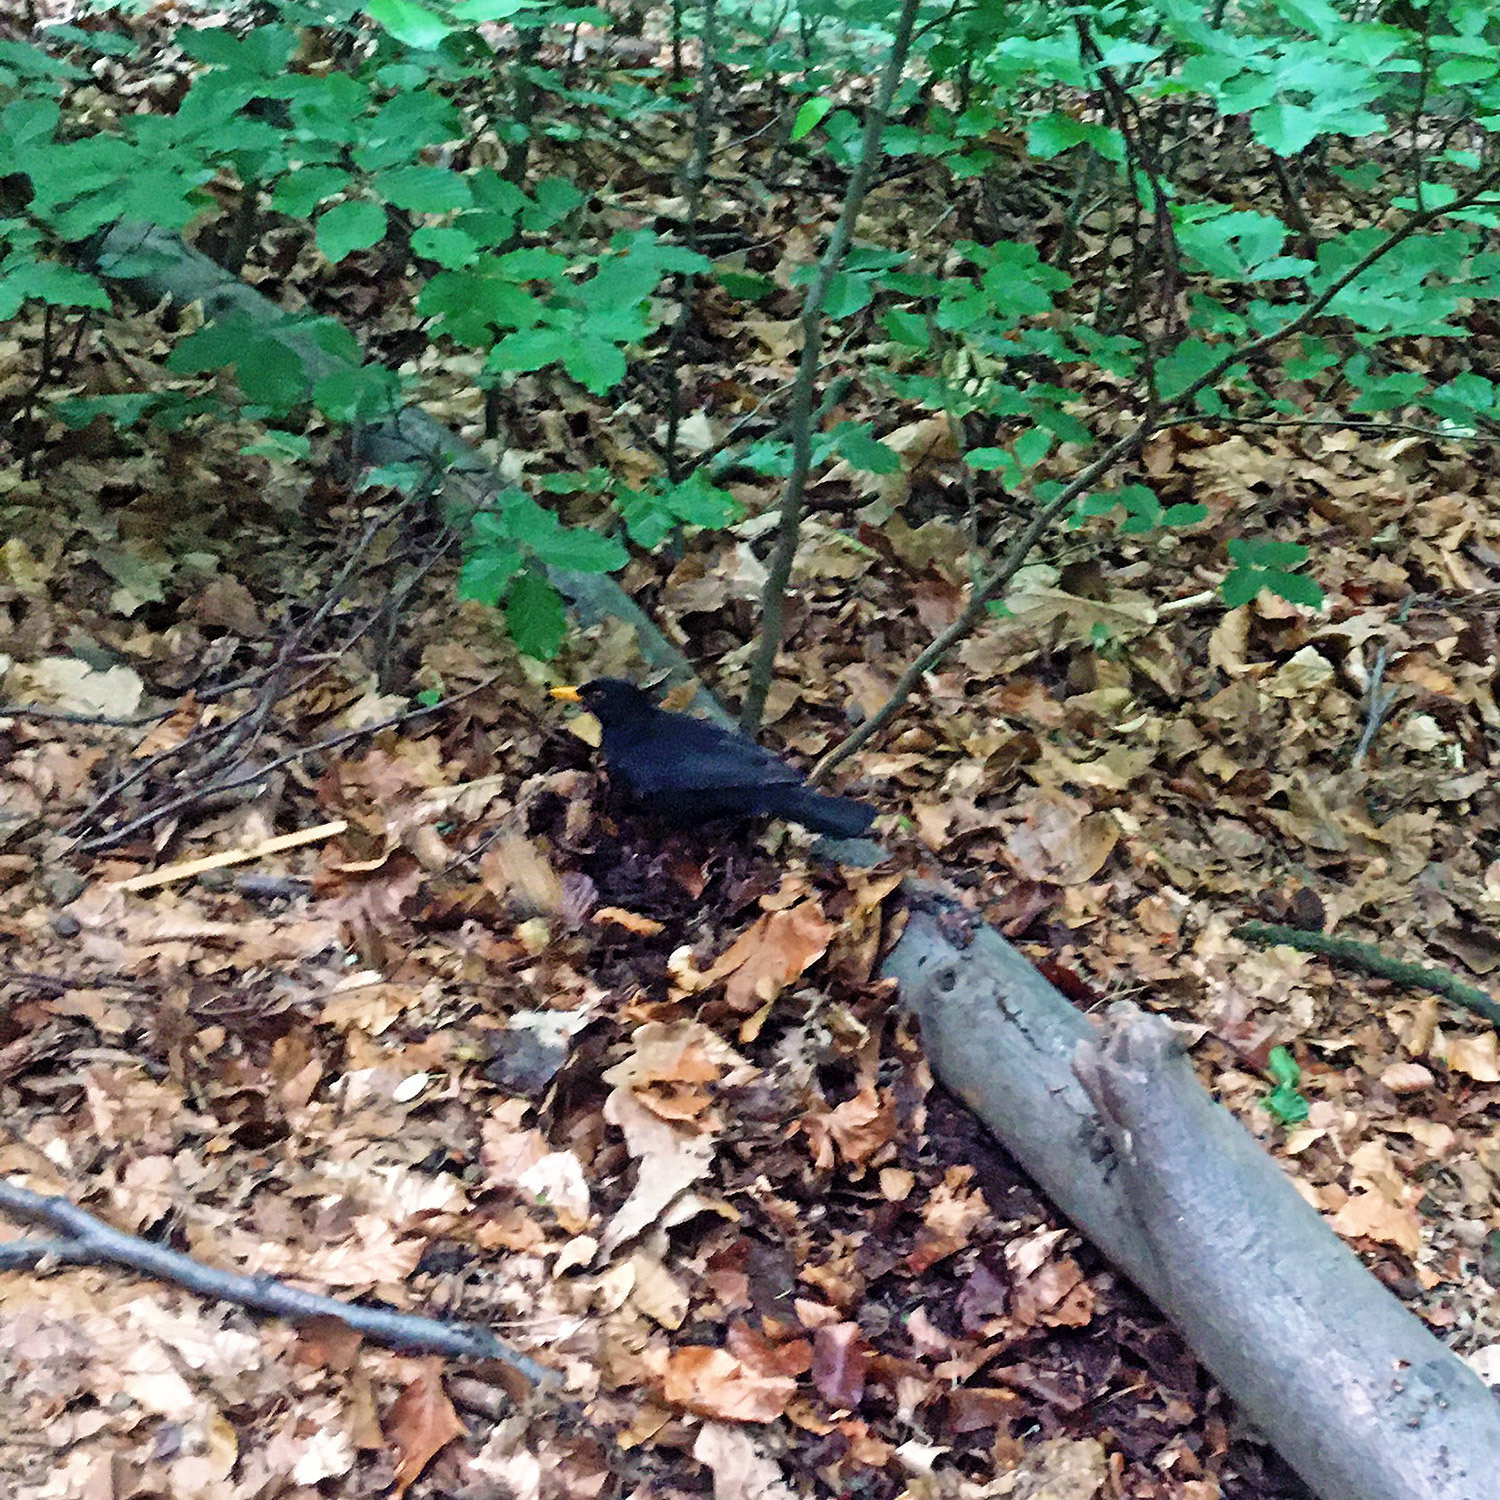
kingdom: Animalia
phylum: Chordata
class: Aves
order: Passeriformes
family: Turdidae
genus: Turdus
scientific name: Turdus merula
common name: Common blackbird
